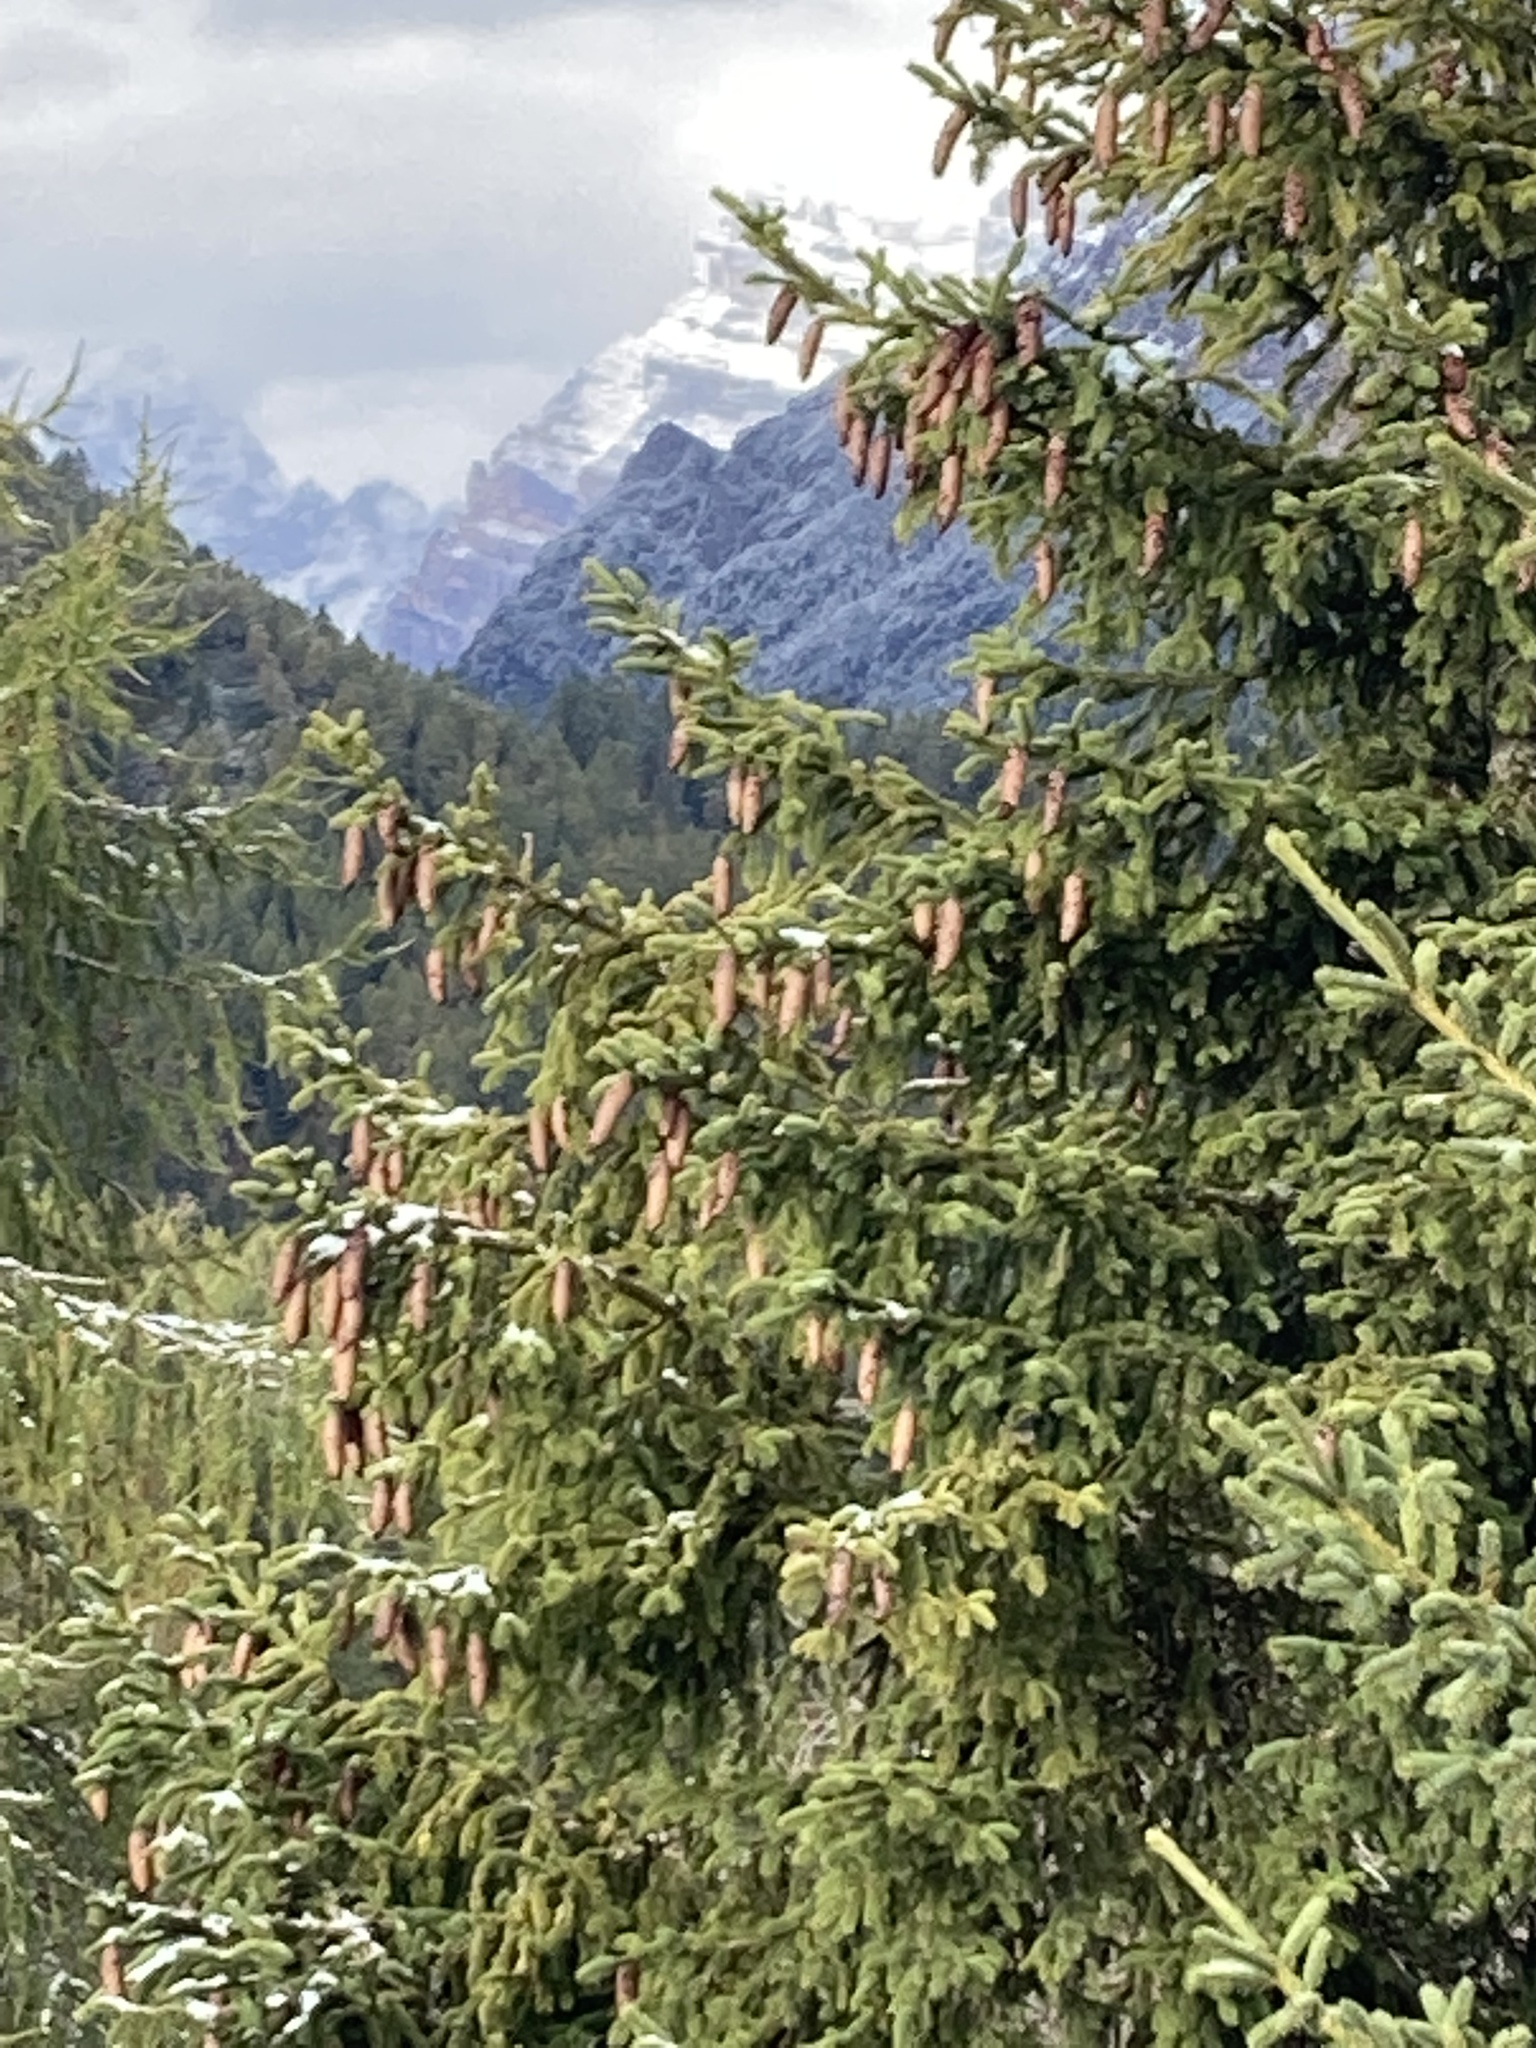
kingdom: Plantae
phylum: Tracheophyta
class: Pinopsida
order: Pinales
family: Pinaceae
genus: Picea
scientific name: Picea abies
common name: Norway spruce
